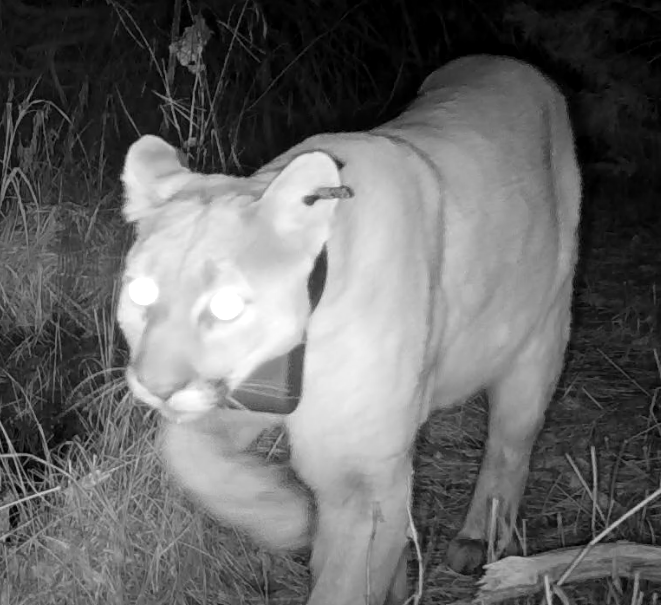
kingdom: Animalia
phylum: Chordata
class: Mammalia
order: Carnivora
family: Felidae
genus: Puma
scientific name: Puma concolor
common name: Puma
